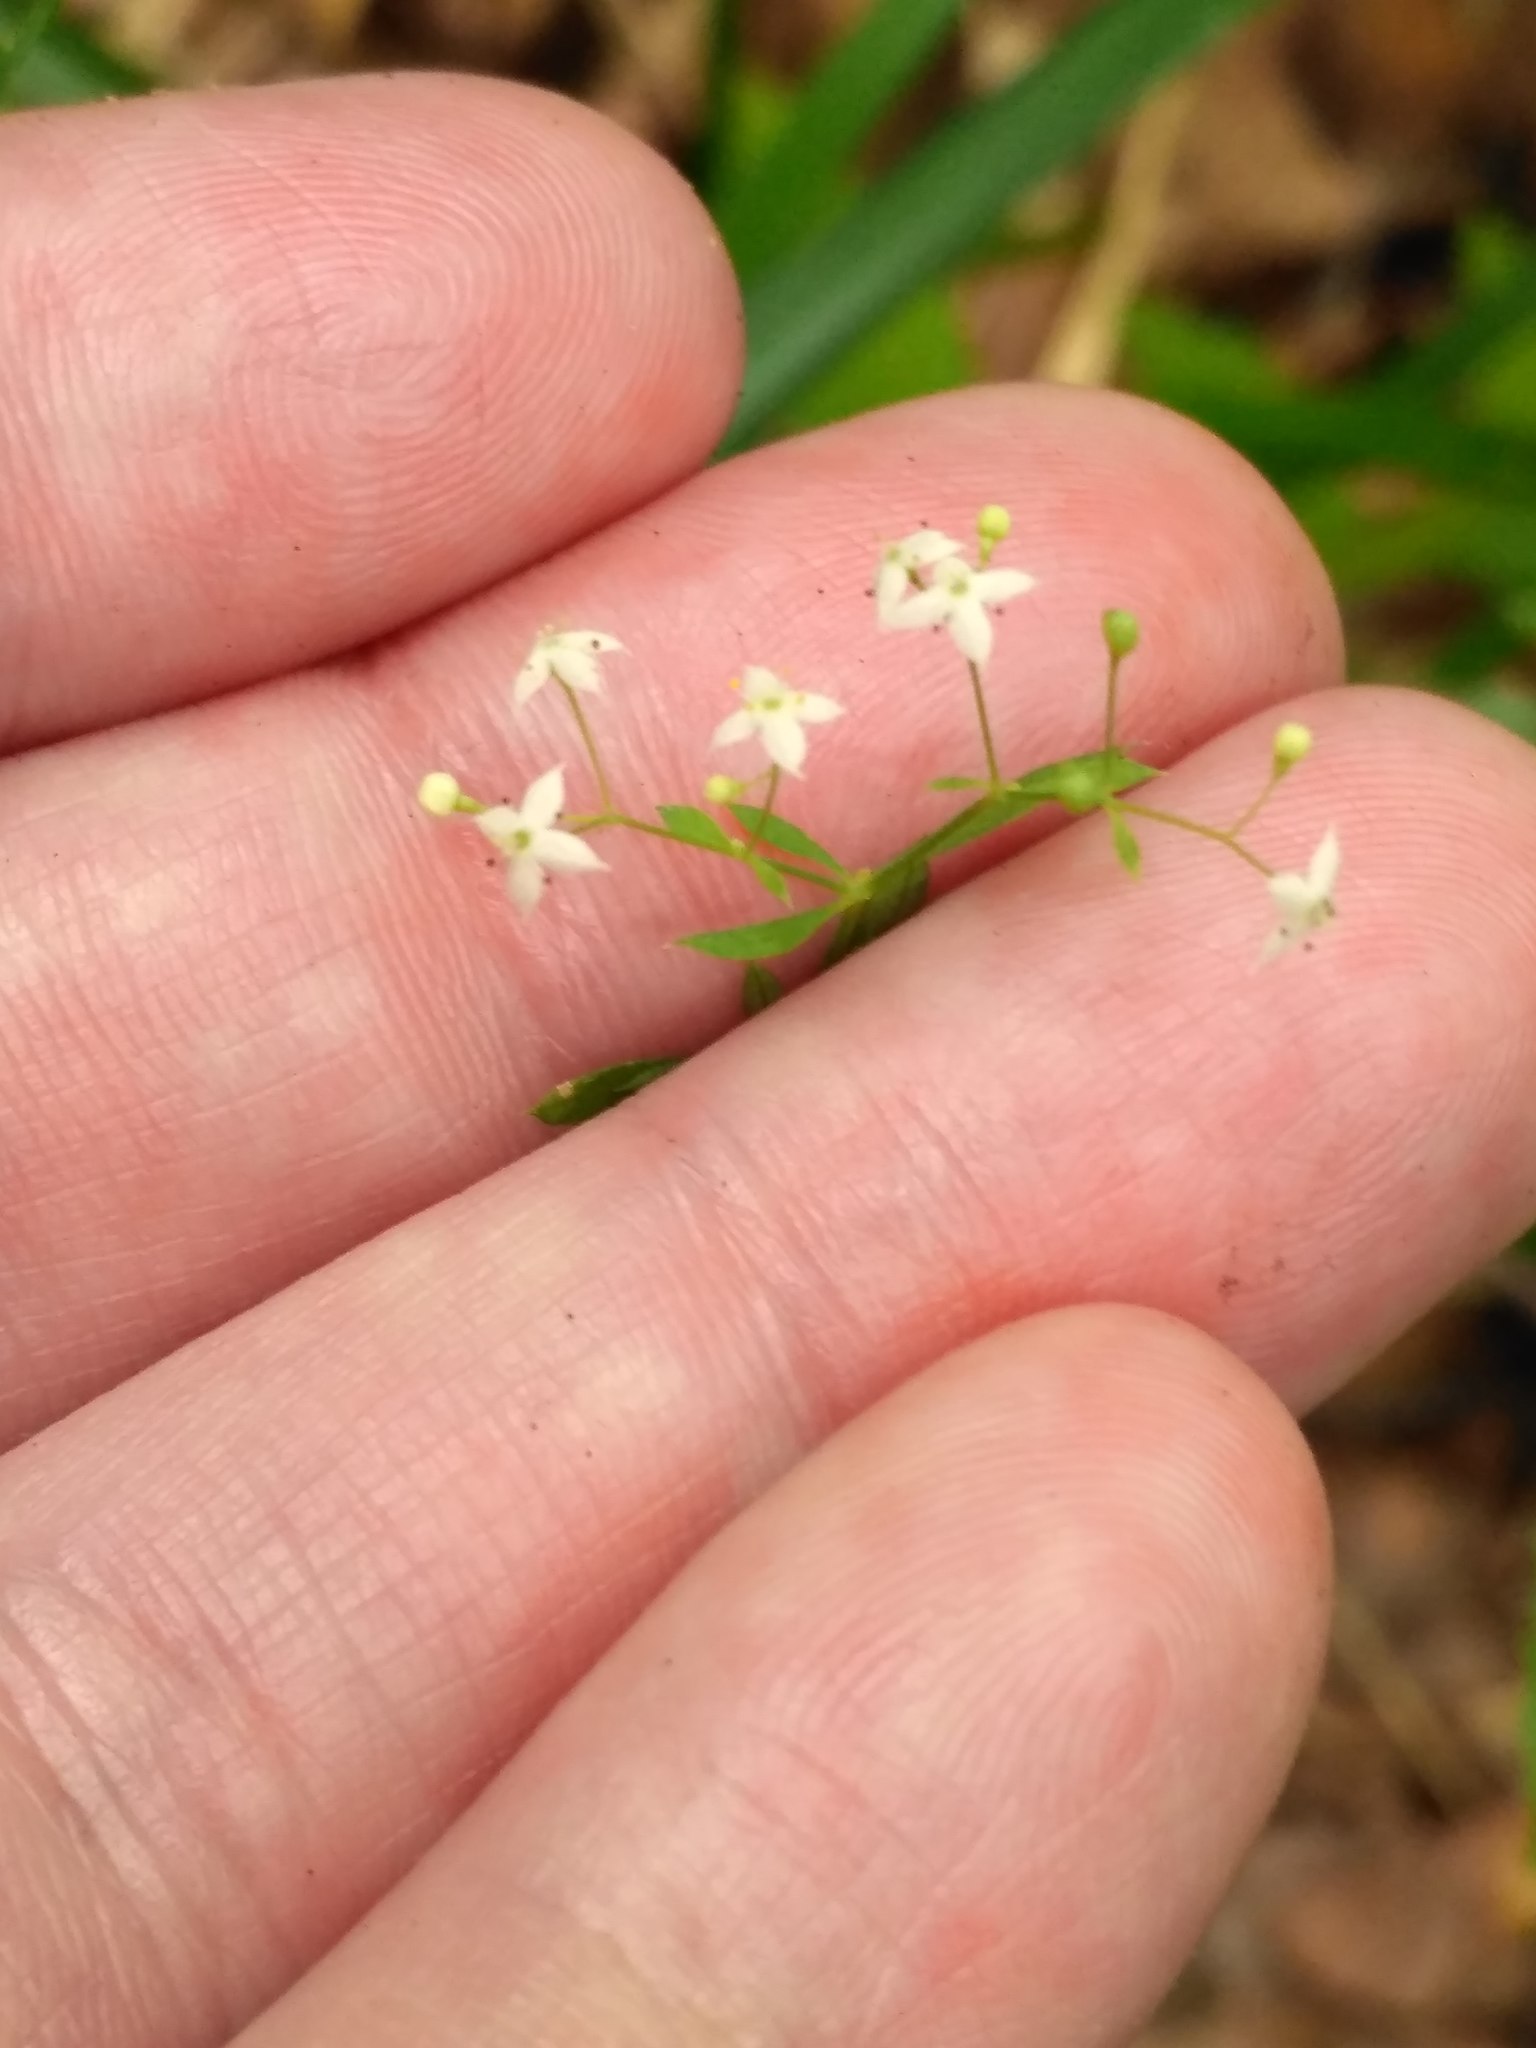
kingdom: Plantae
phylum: Tracheophyta
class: Magnoliopsida
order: Gentianales
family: Rubiaceae
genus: Galium
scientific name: Galium intermedium
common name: Bedstraw
